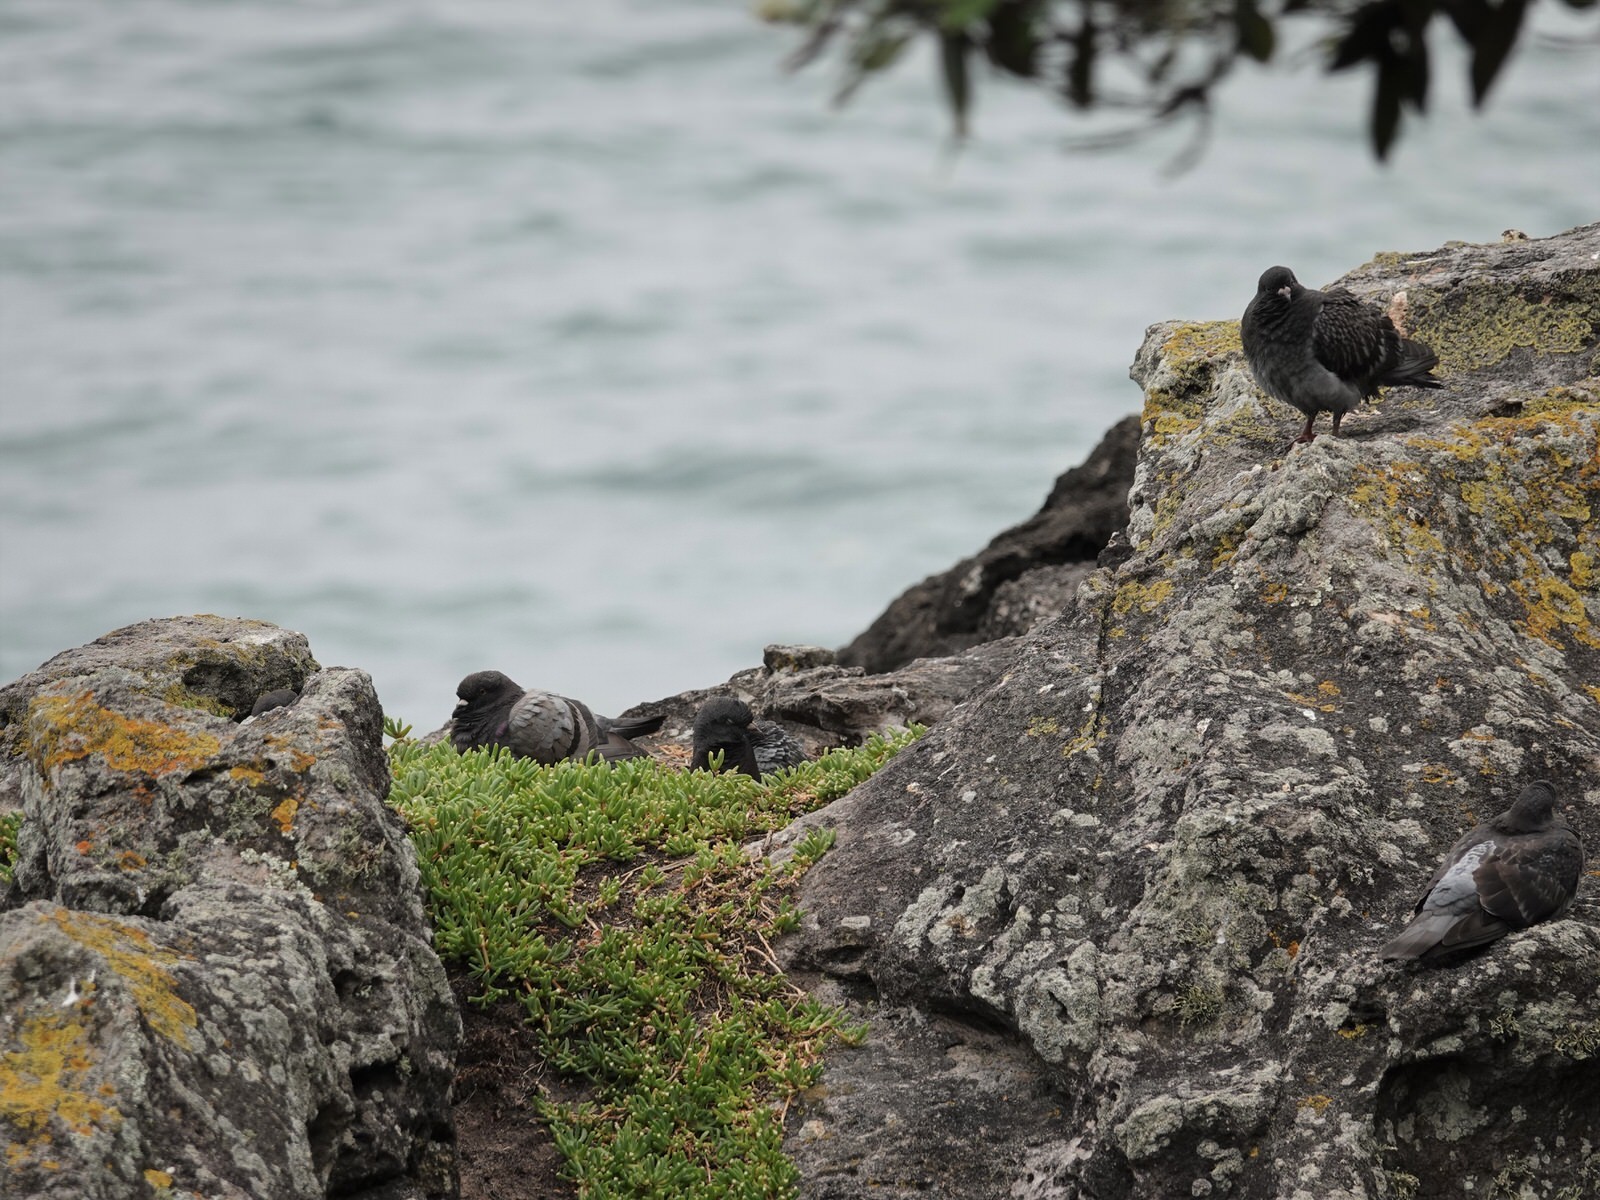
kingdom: Animalia
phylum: Chordata
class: Aves
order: Columbiformes
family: Columbidae
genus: Columba
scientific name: Columba livia
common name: Rock pigeon
